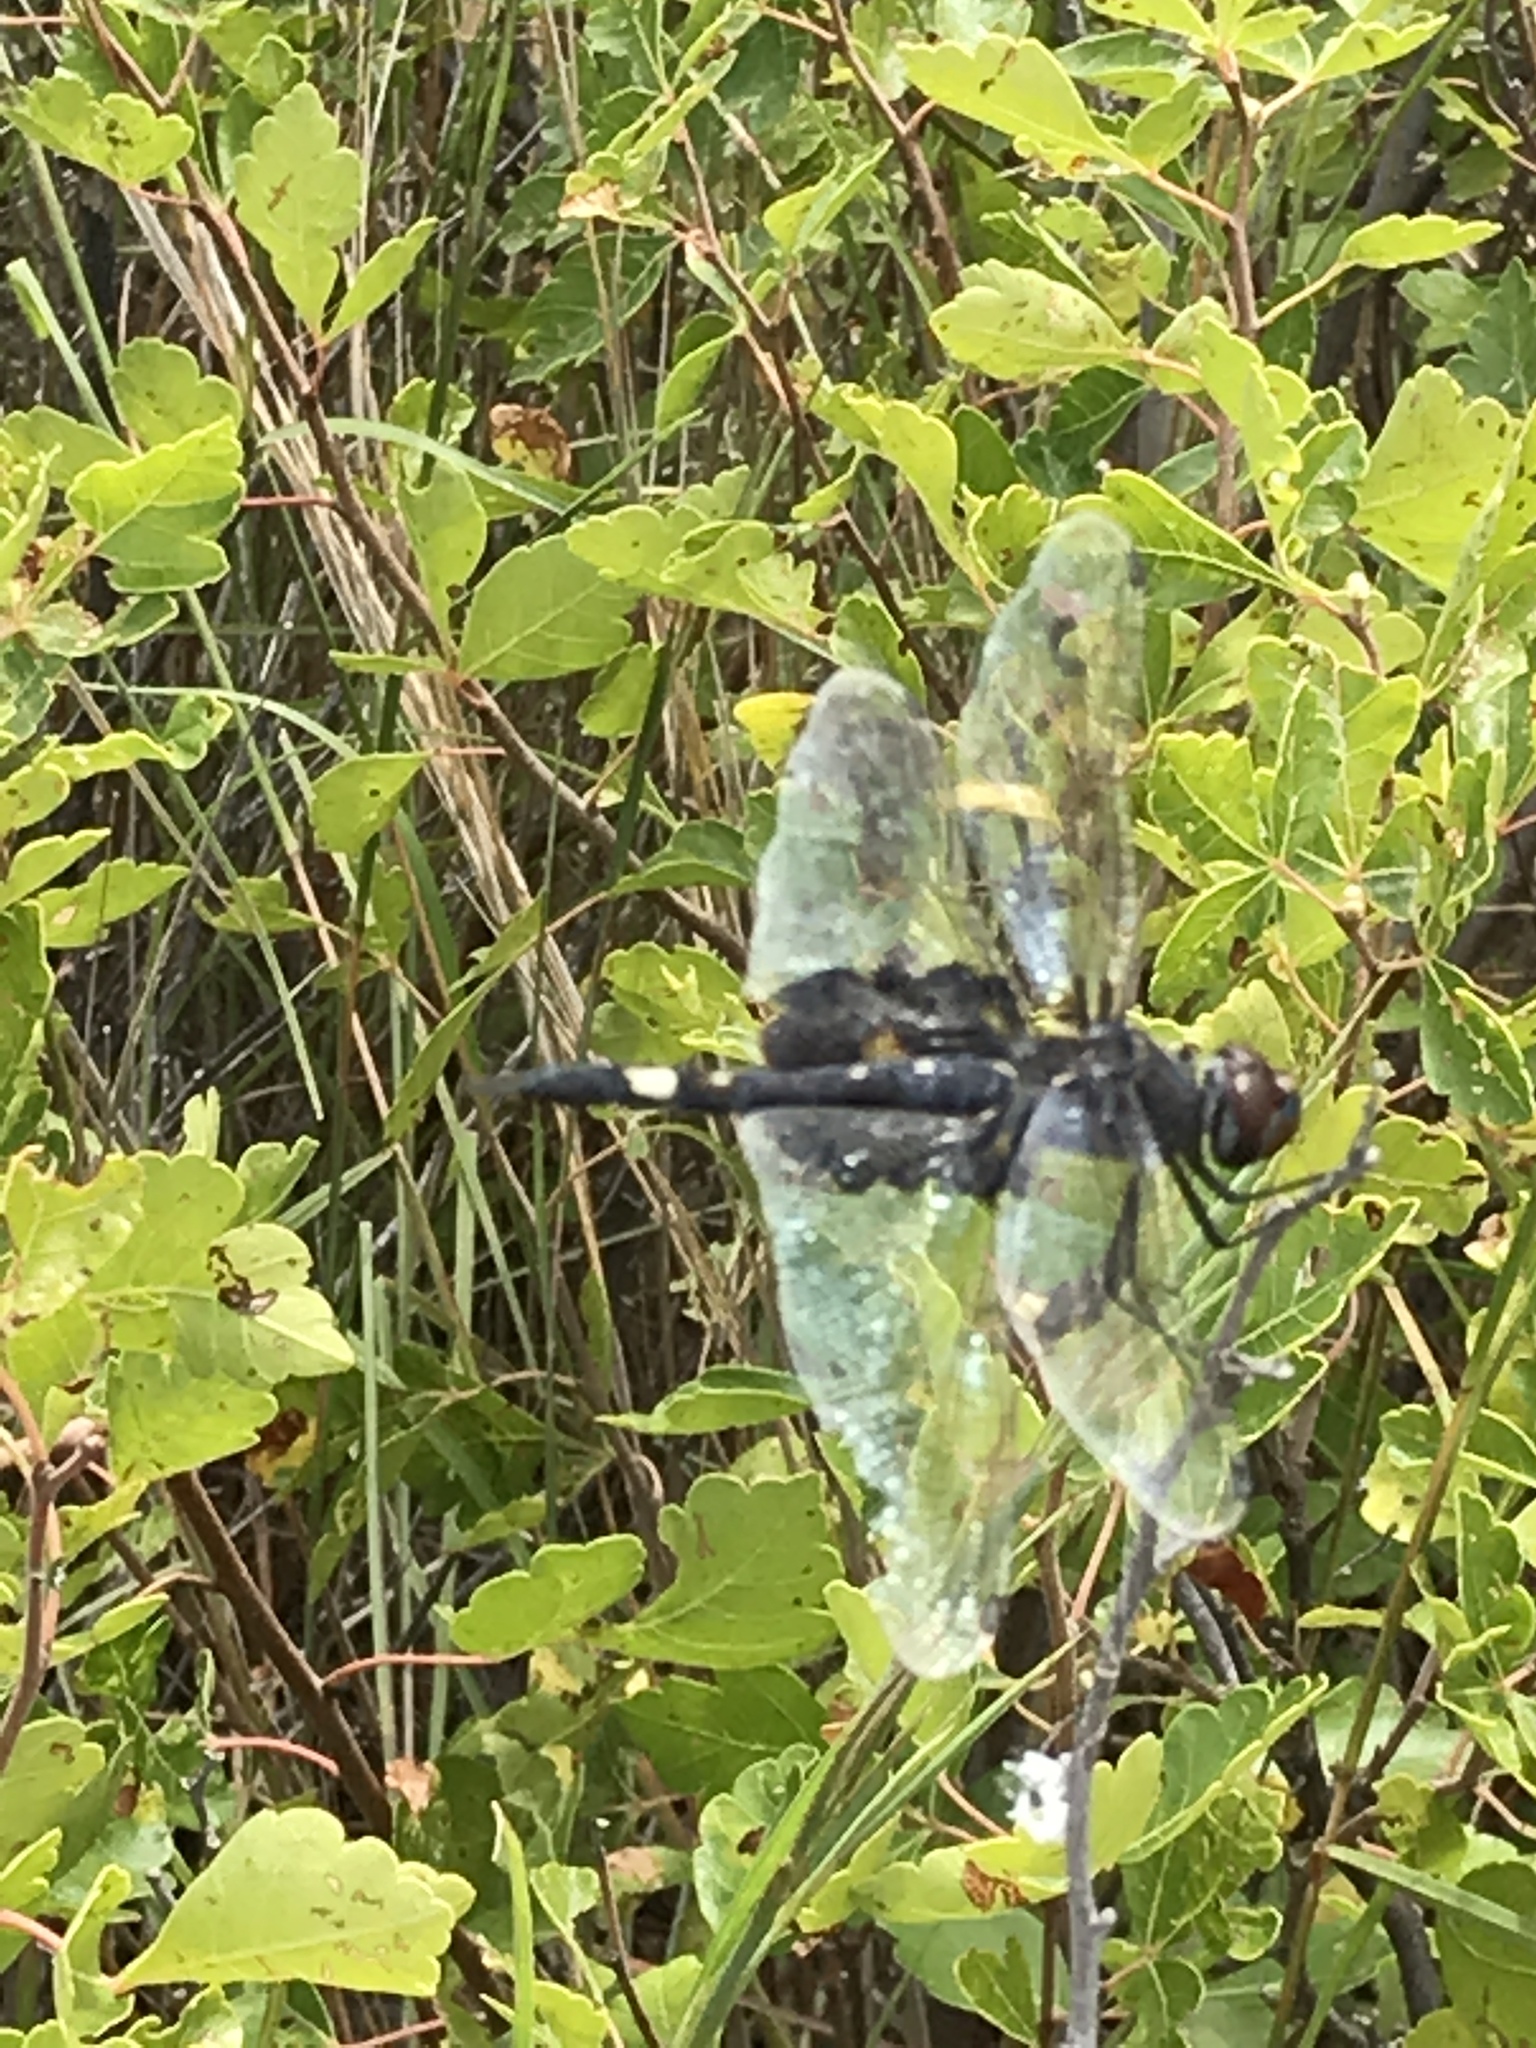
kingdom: Animalia
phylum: Arthropoda
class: Insecta
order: Odonata
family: Libellulidae
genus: Tramea
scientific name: Tramea lacerata
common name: Black saddlebags
